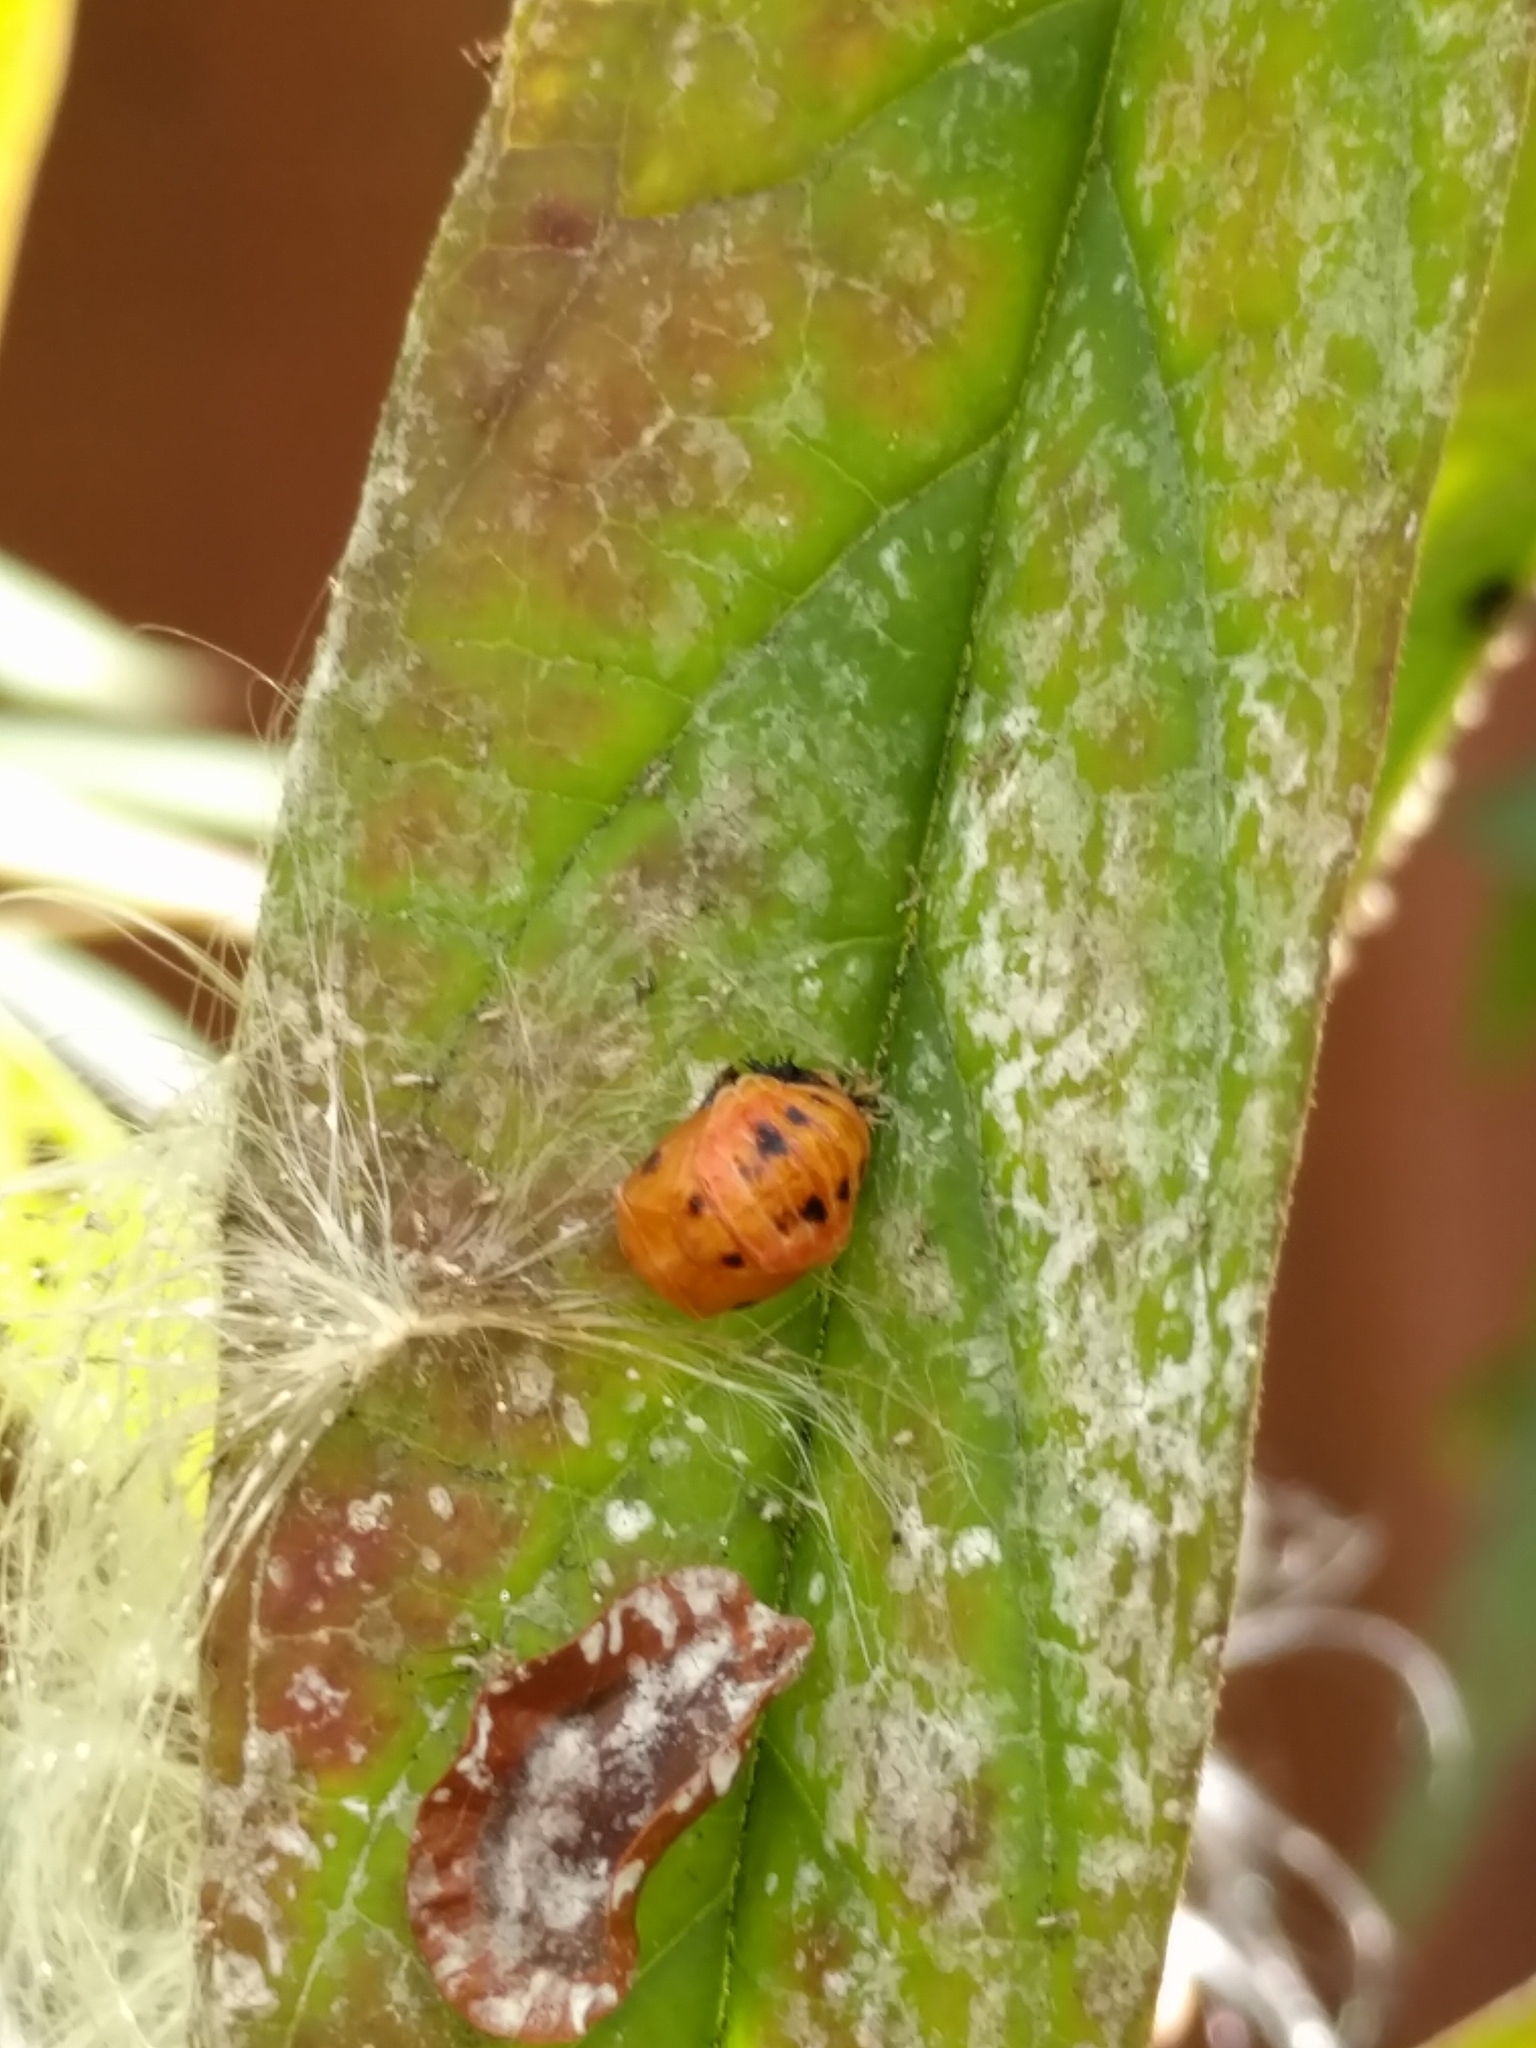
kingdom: Animalia
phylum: Arthropoda
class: Insecta
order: Coleoptera
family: Coccinellidae
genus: Harmonia
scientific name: Harmonia axyridis
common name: Harlequin ladybird
